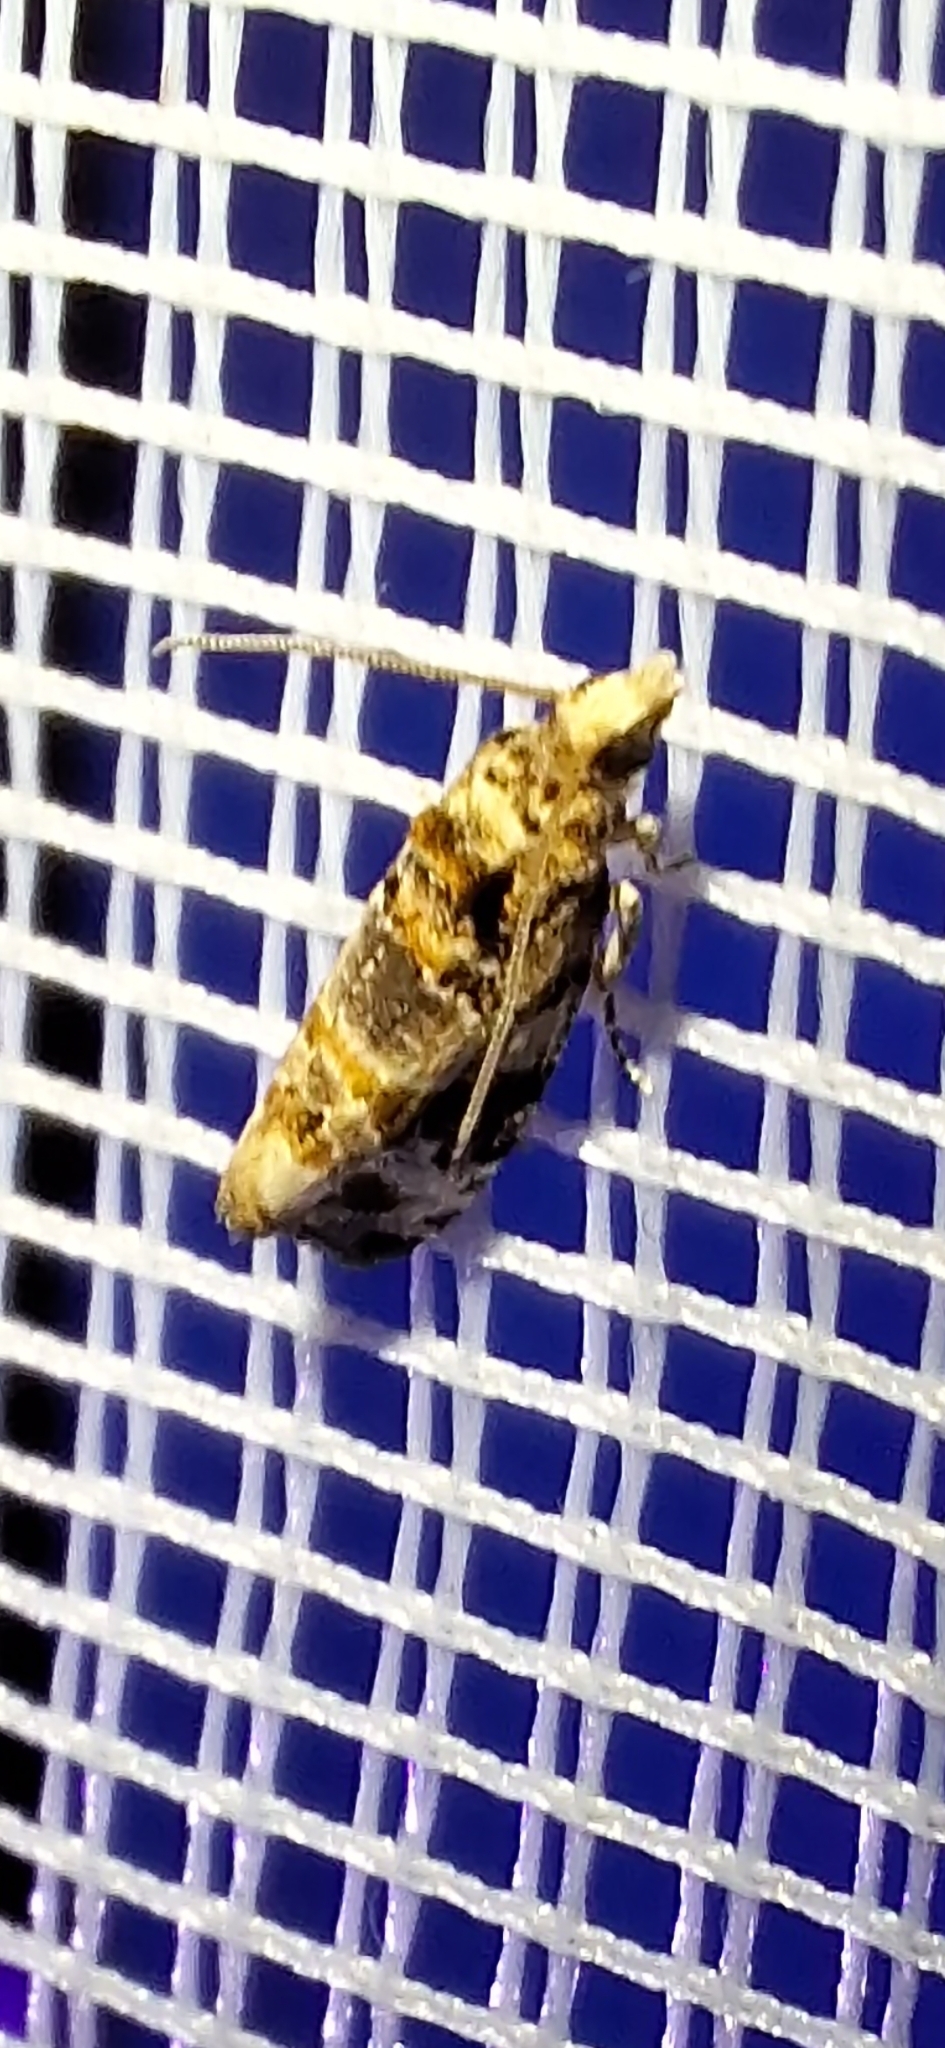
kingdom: Animalia
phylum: Arthropoda
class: Insecta
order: Lepidoptera
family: Tortricidae
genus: Lobesia
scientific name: Lobesia botrana
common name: European vine moth
